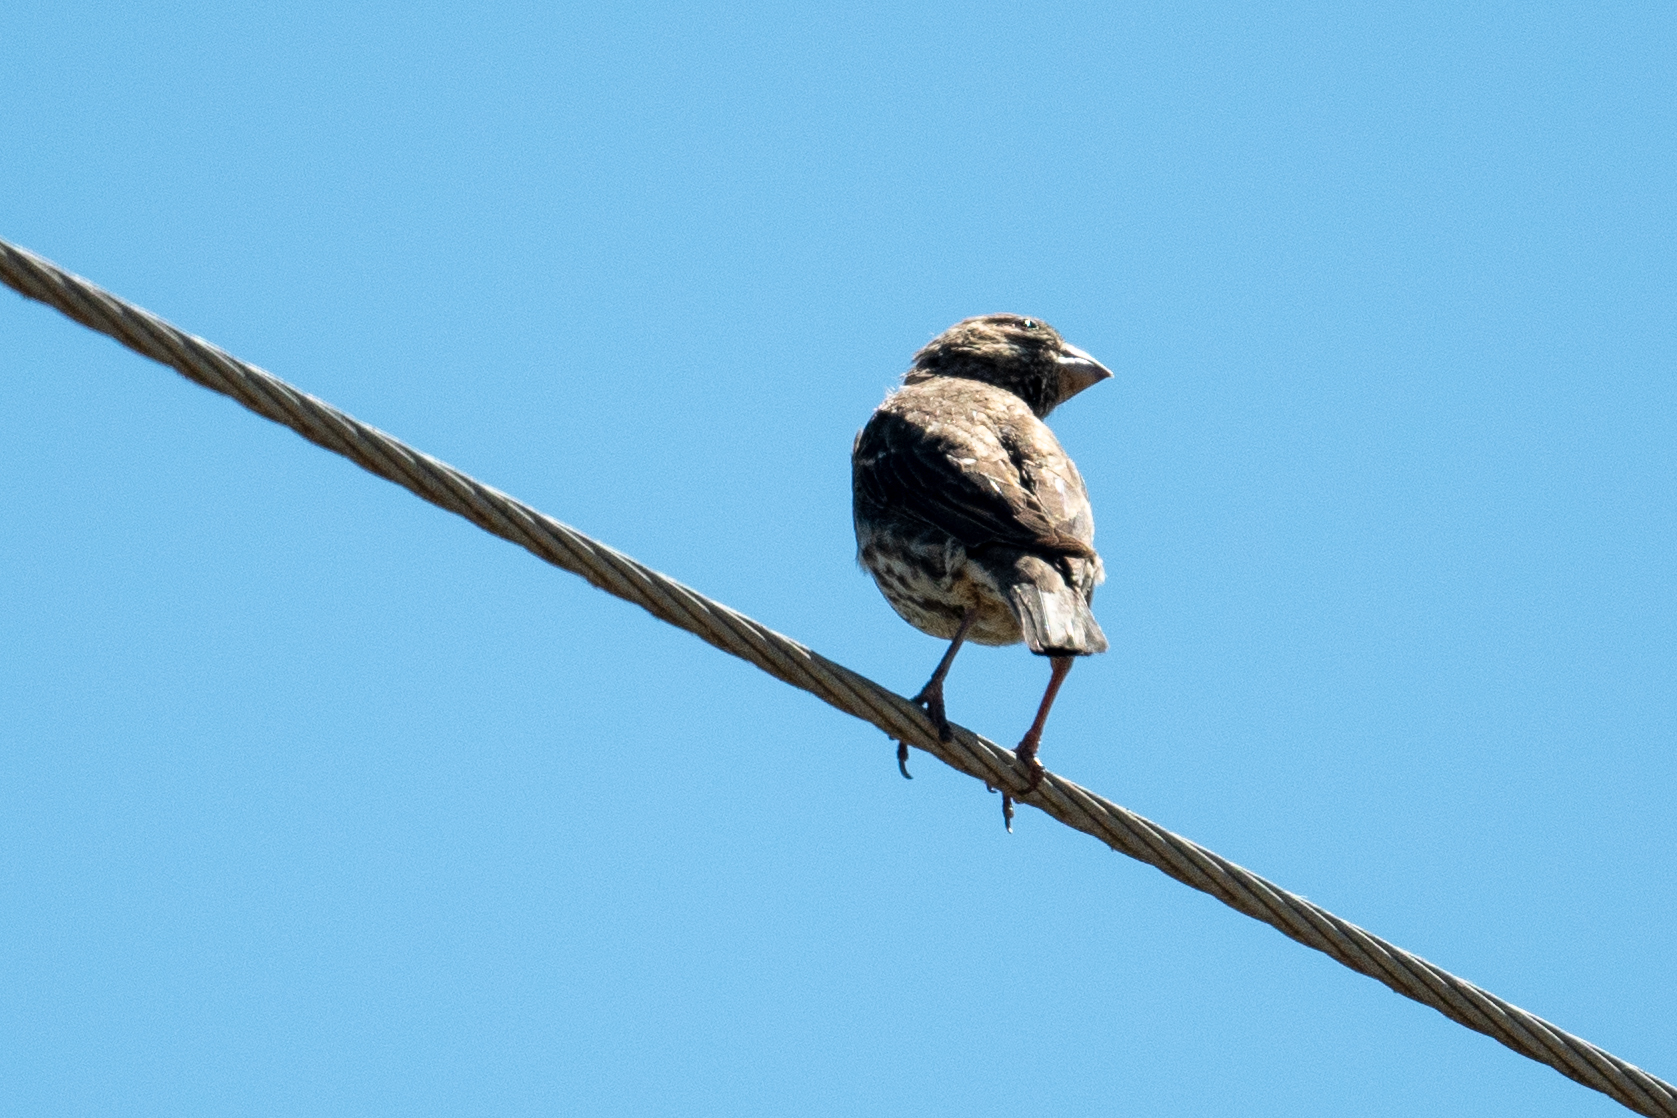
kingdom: Animalia
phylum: Chordata
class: Aves
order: Passeriformes
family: Fringillidae
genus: Haemorhous
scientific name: Haemorhous mexicanus
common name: House finch
